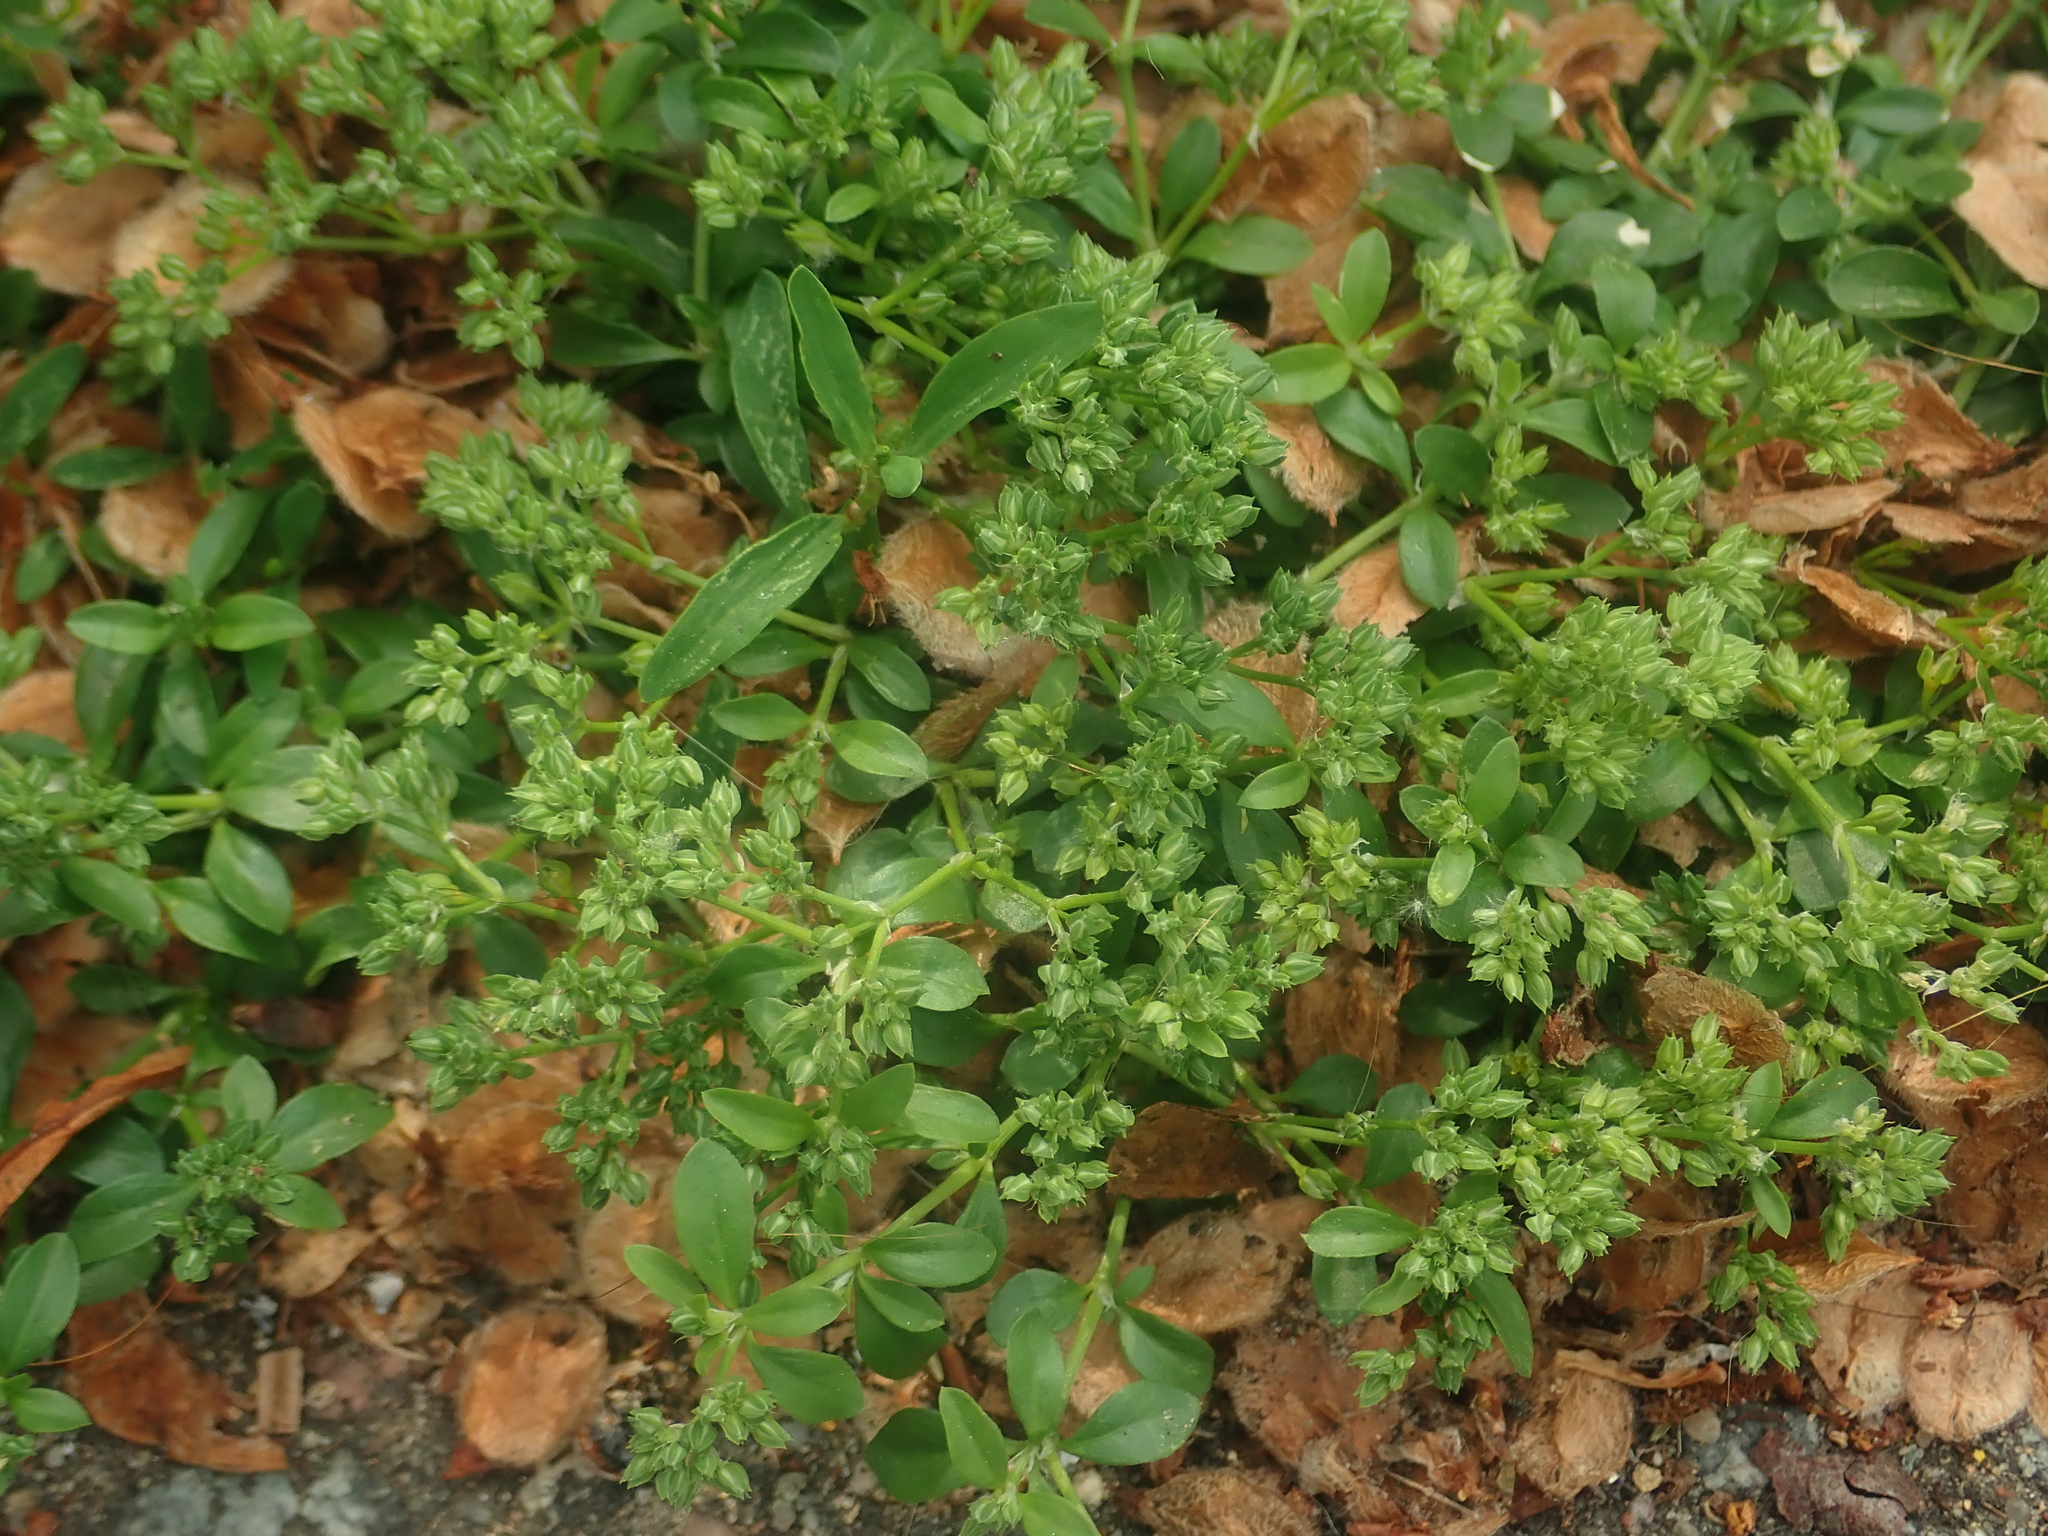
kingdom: Plantae
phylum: Tracheophyta
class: Magnoliopsida
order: Caryophyllales
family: Caryophyllaceae
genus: Polycarpon
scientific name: Polycarpon tetraphyllum
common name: Four-leaved all-seed
